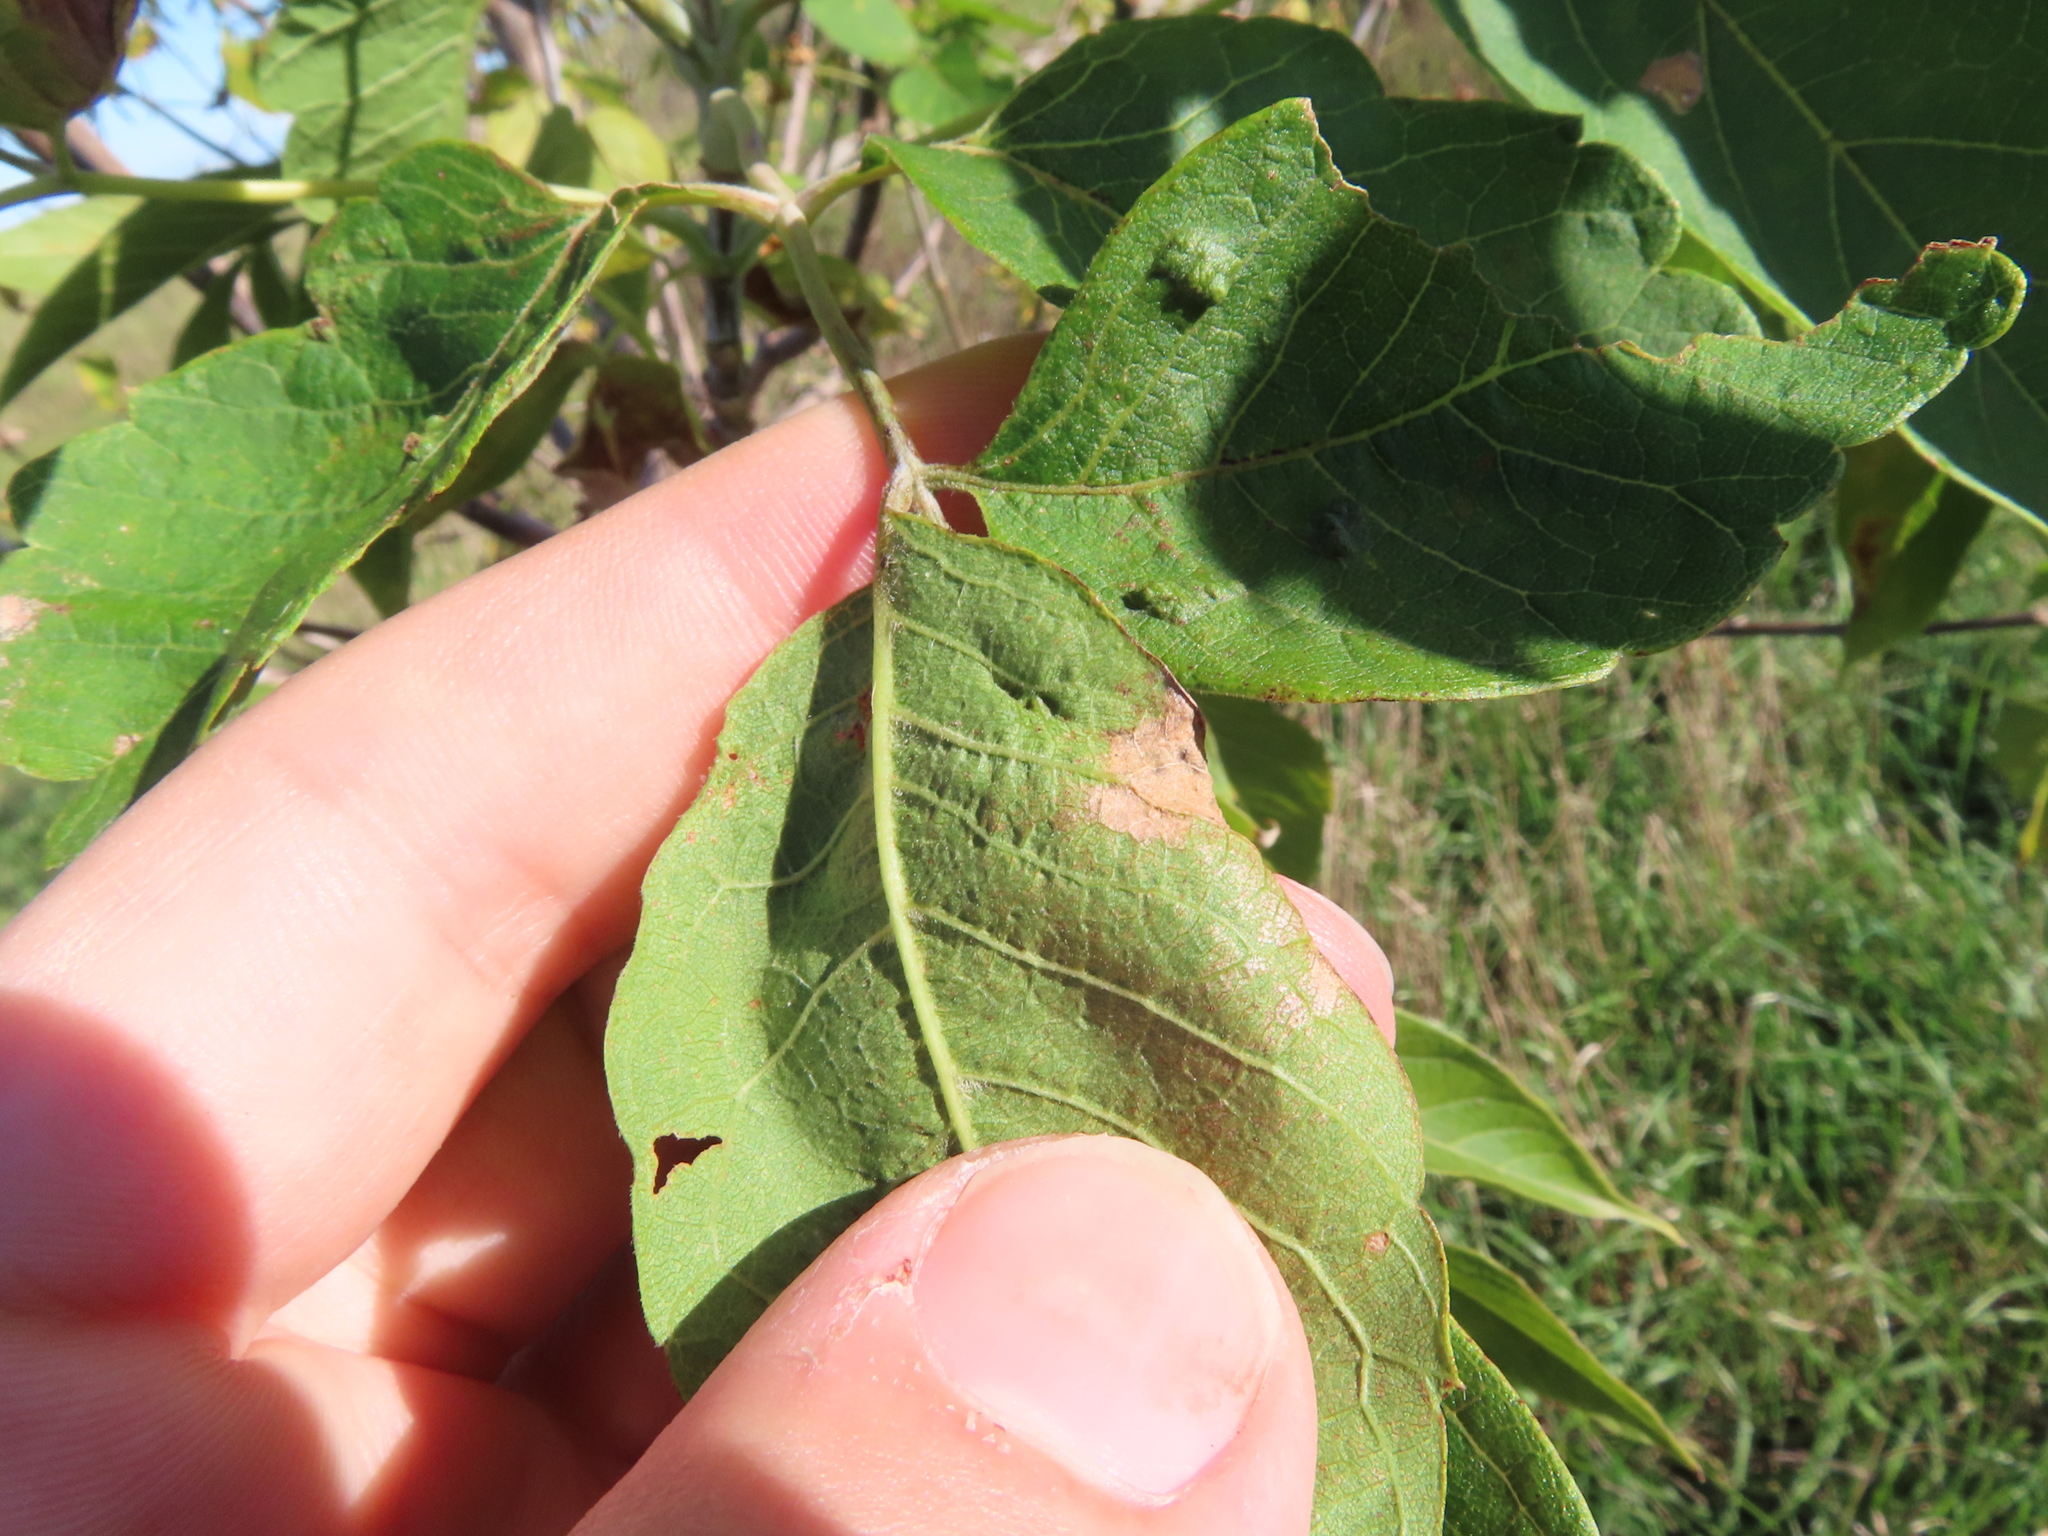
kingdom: Animalia
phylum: Arthropoda
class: Arachnida
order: Trombidiformes
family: Eriophyidae
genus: Aceria
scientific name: Aceria
